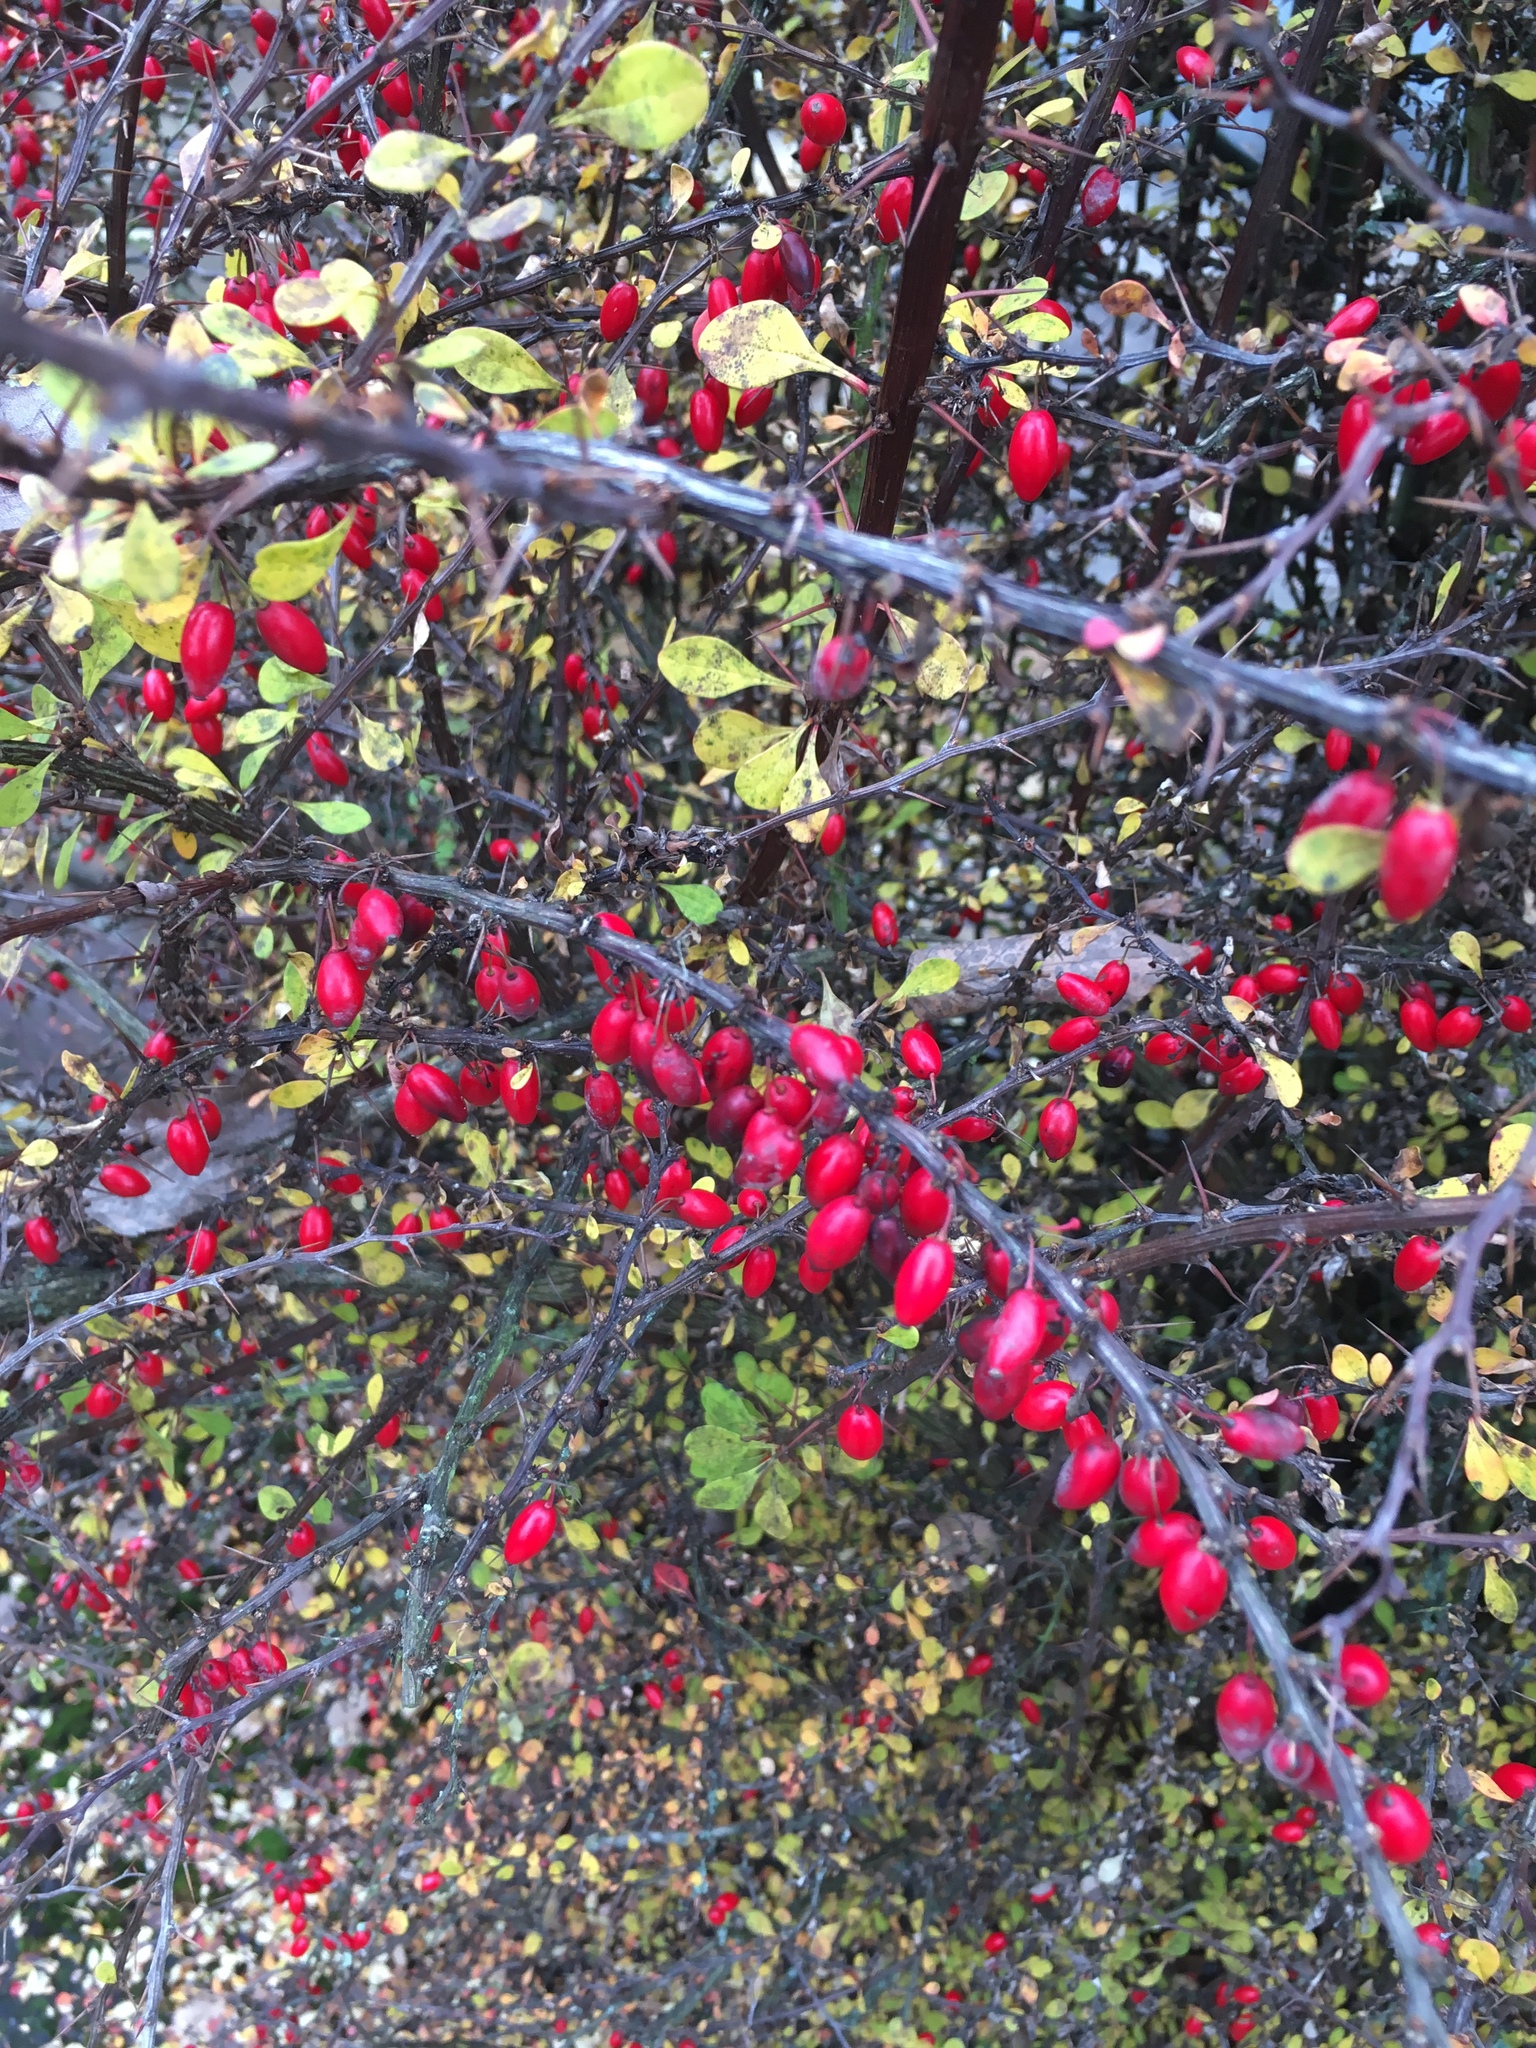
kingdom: Plantae
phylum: Tracheophyta
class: Magnoliopsida
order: Ranunculales
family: Berberidaceae
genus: Berberis
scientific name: Berberis thunbergii
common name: Japanese barberry
